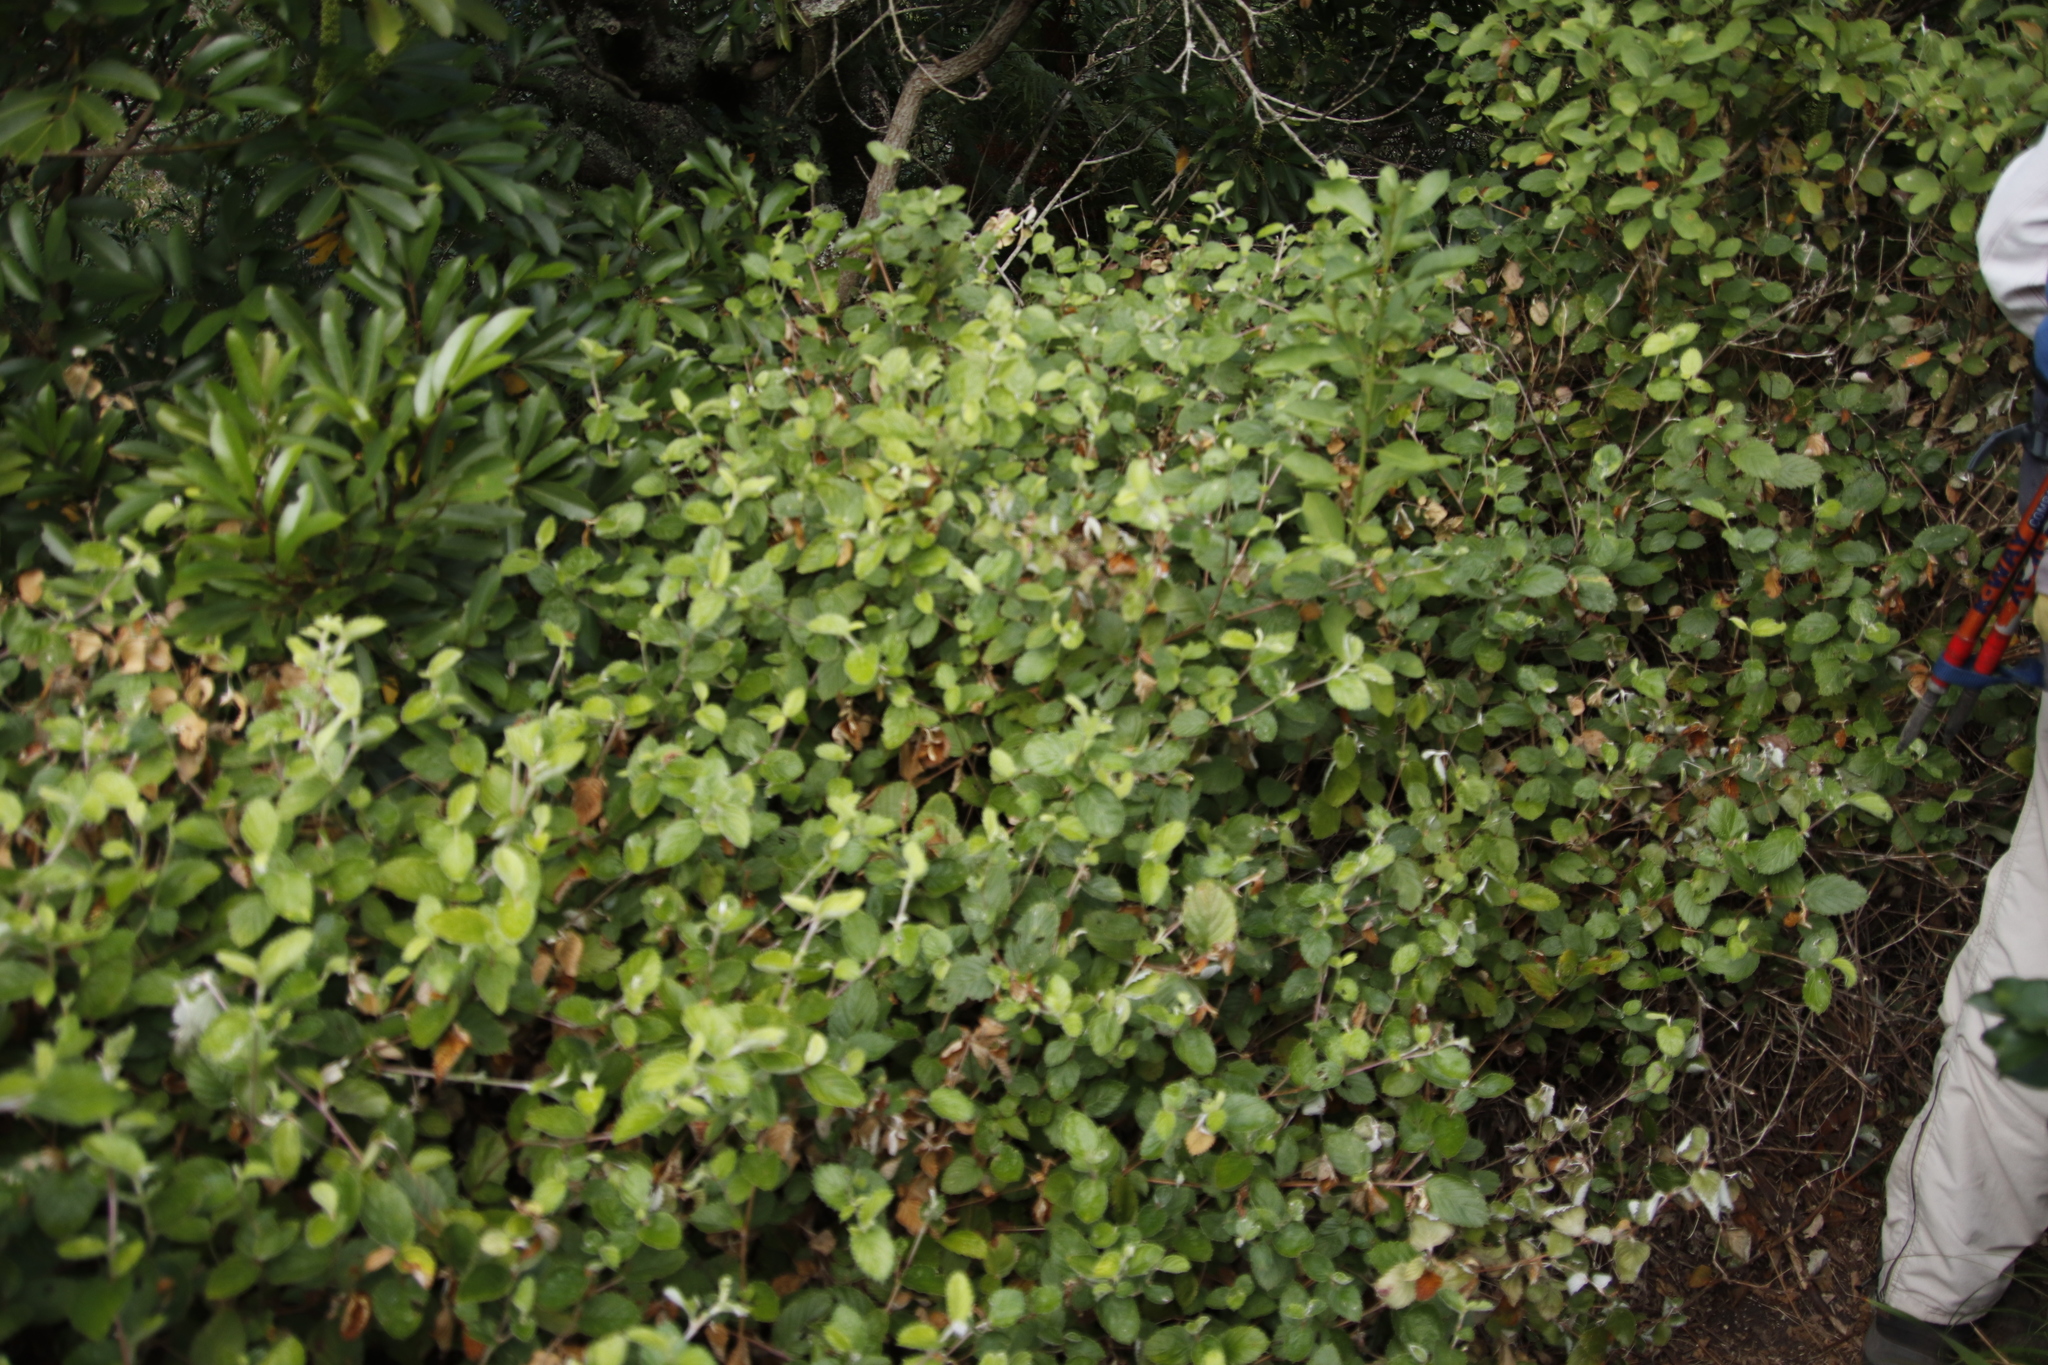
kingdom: Plantae
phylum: Tracheophyta
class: Magnoliopsida
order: Rosales
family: Rosaceae
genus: Cliffortia
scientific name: Cliffortia odorata
